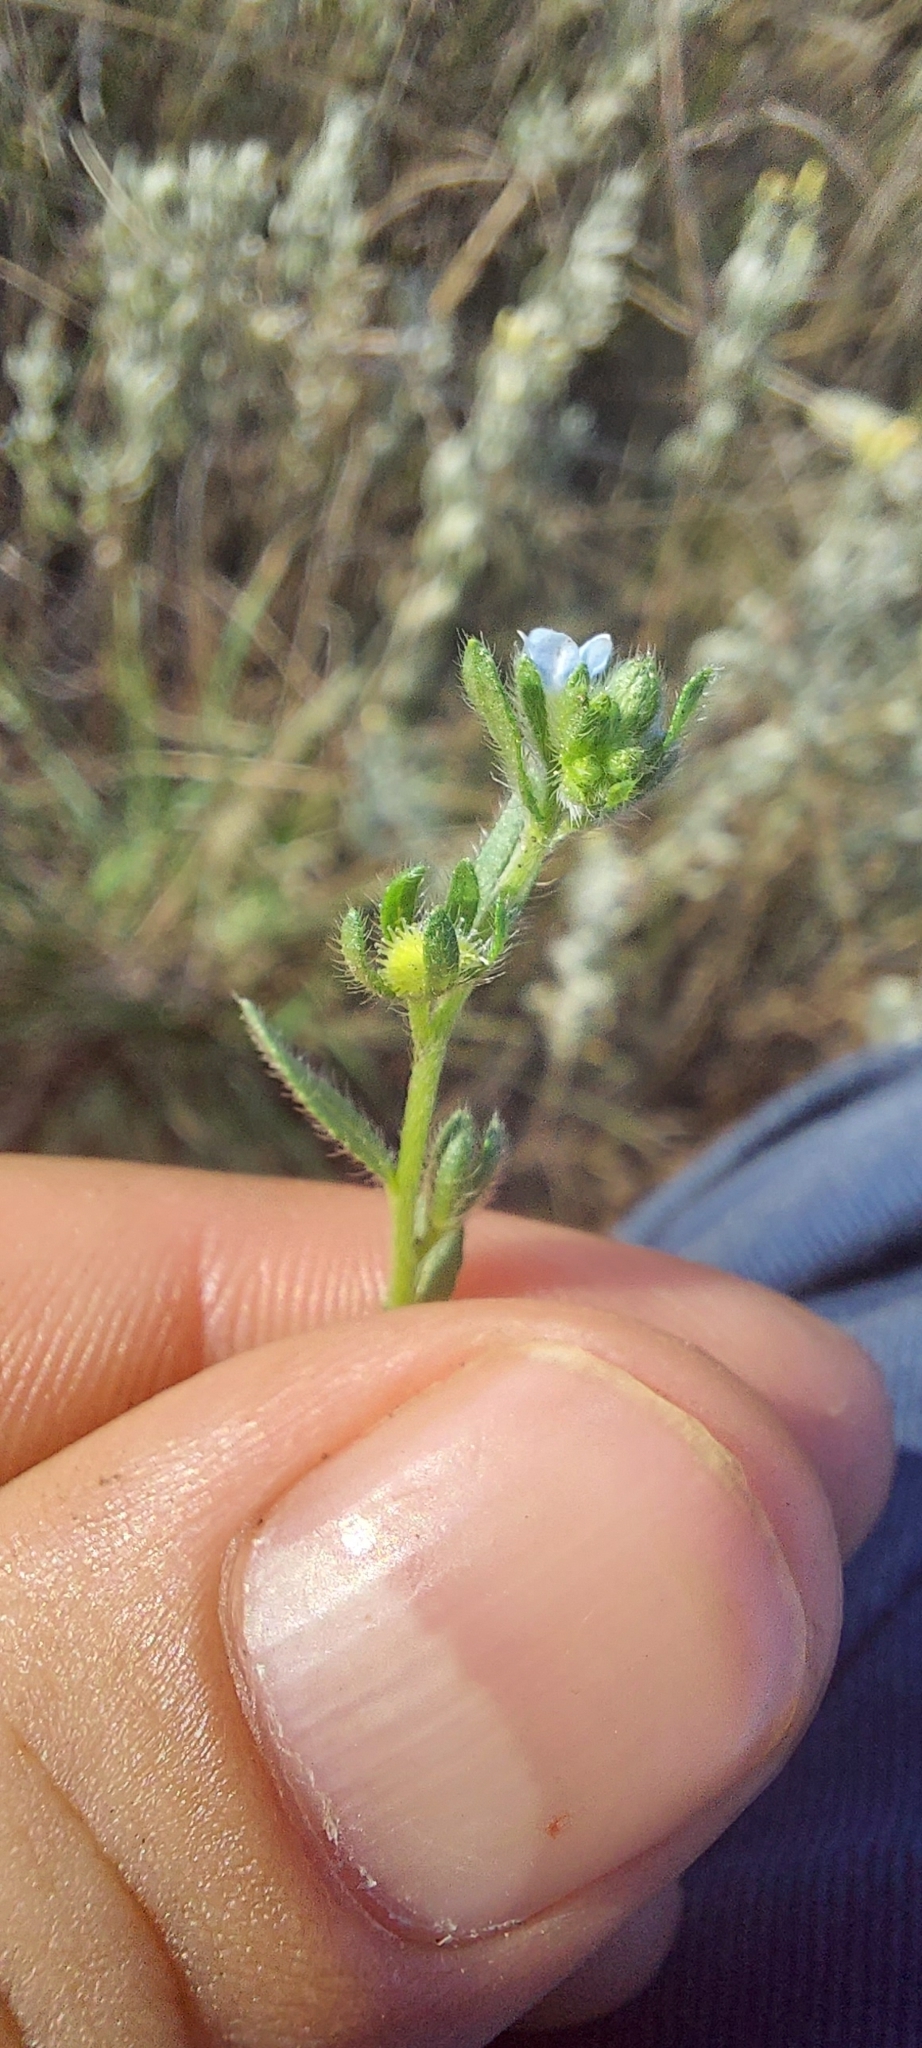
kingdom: Plantae
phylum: Tracheophyta
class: Magnoliopsida
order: Boraginales
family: Boraginaceae
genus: Lappula
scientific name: Lappula squarrosa
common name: European stickseed
